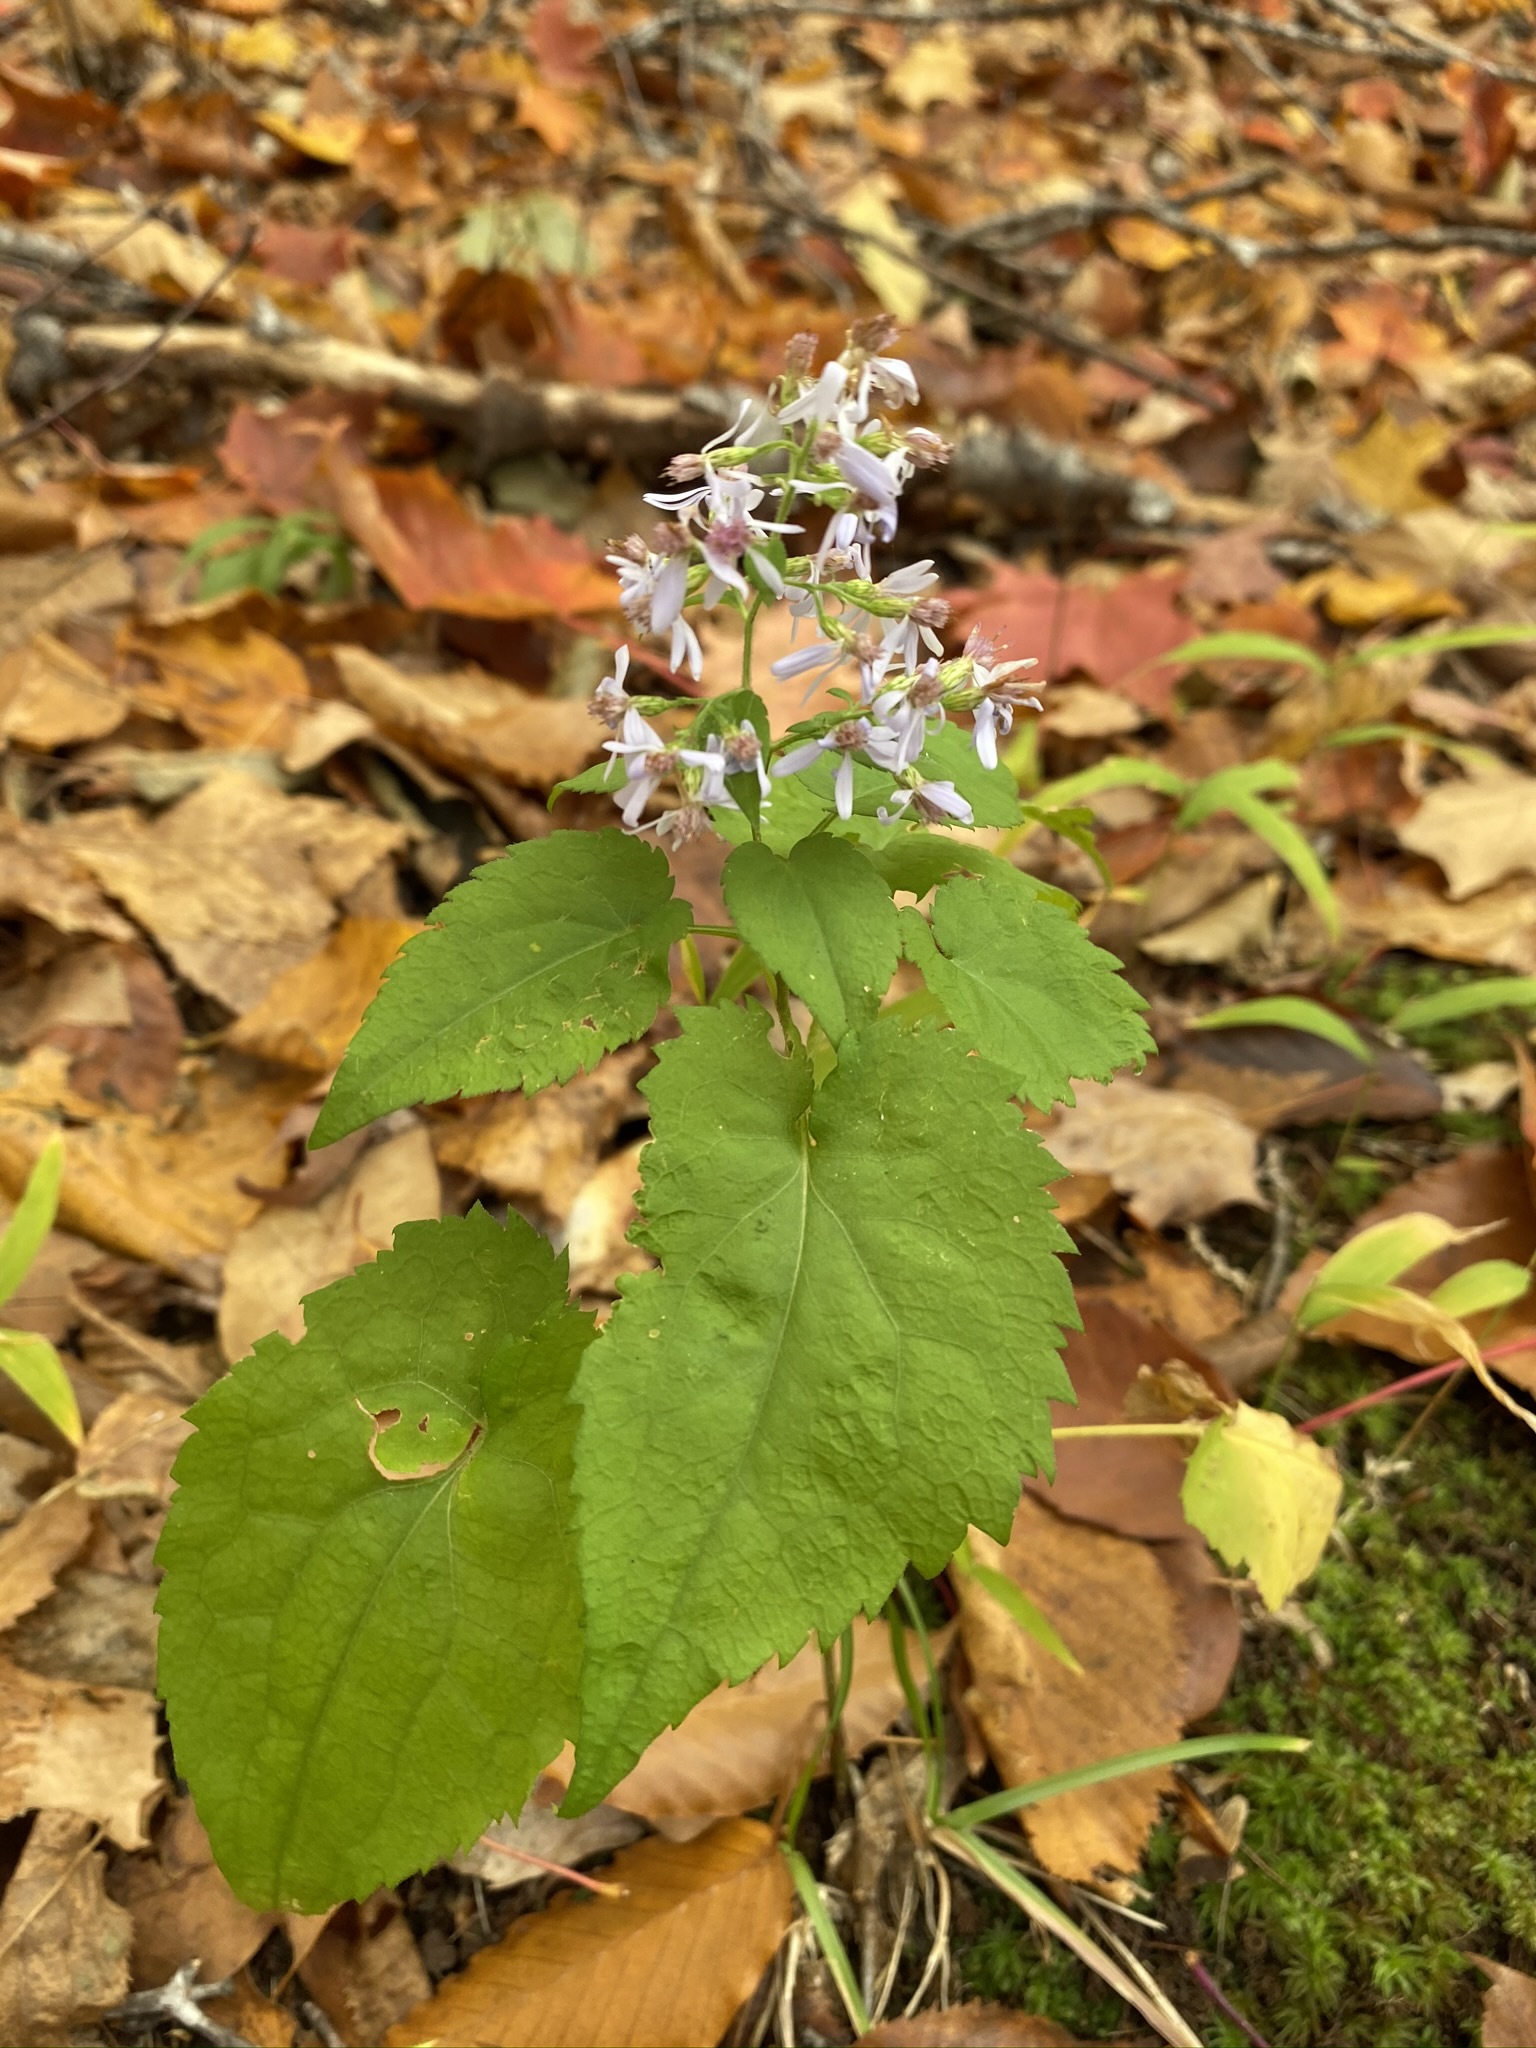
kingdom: Plantae
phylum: Tracheophyta
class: Magnoliopsida
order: Asterales
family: Asteraceae
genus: Symphyotrichum
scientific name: Symphyotrichum cordifolium
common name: Beeweed
